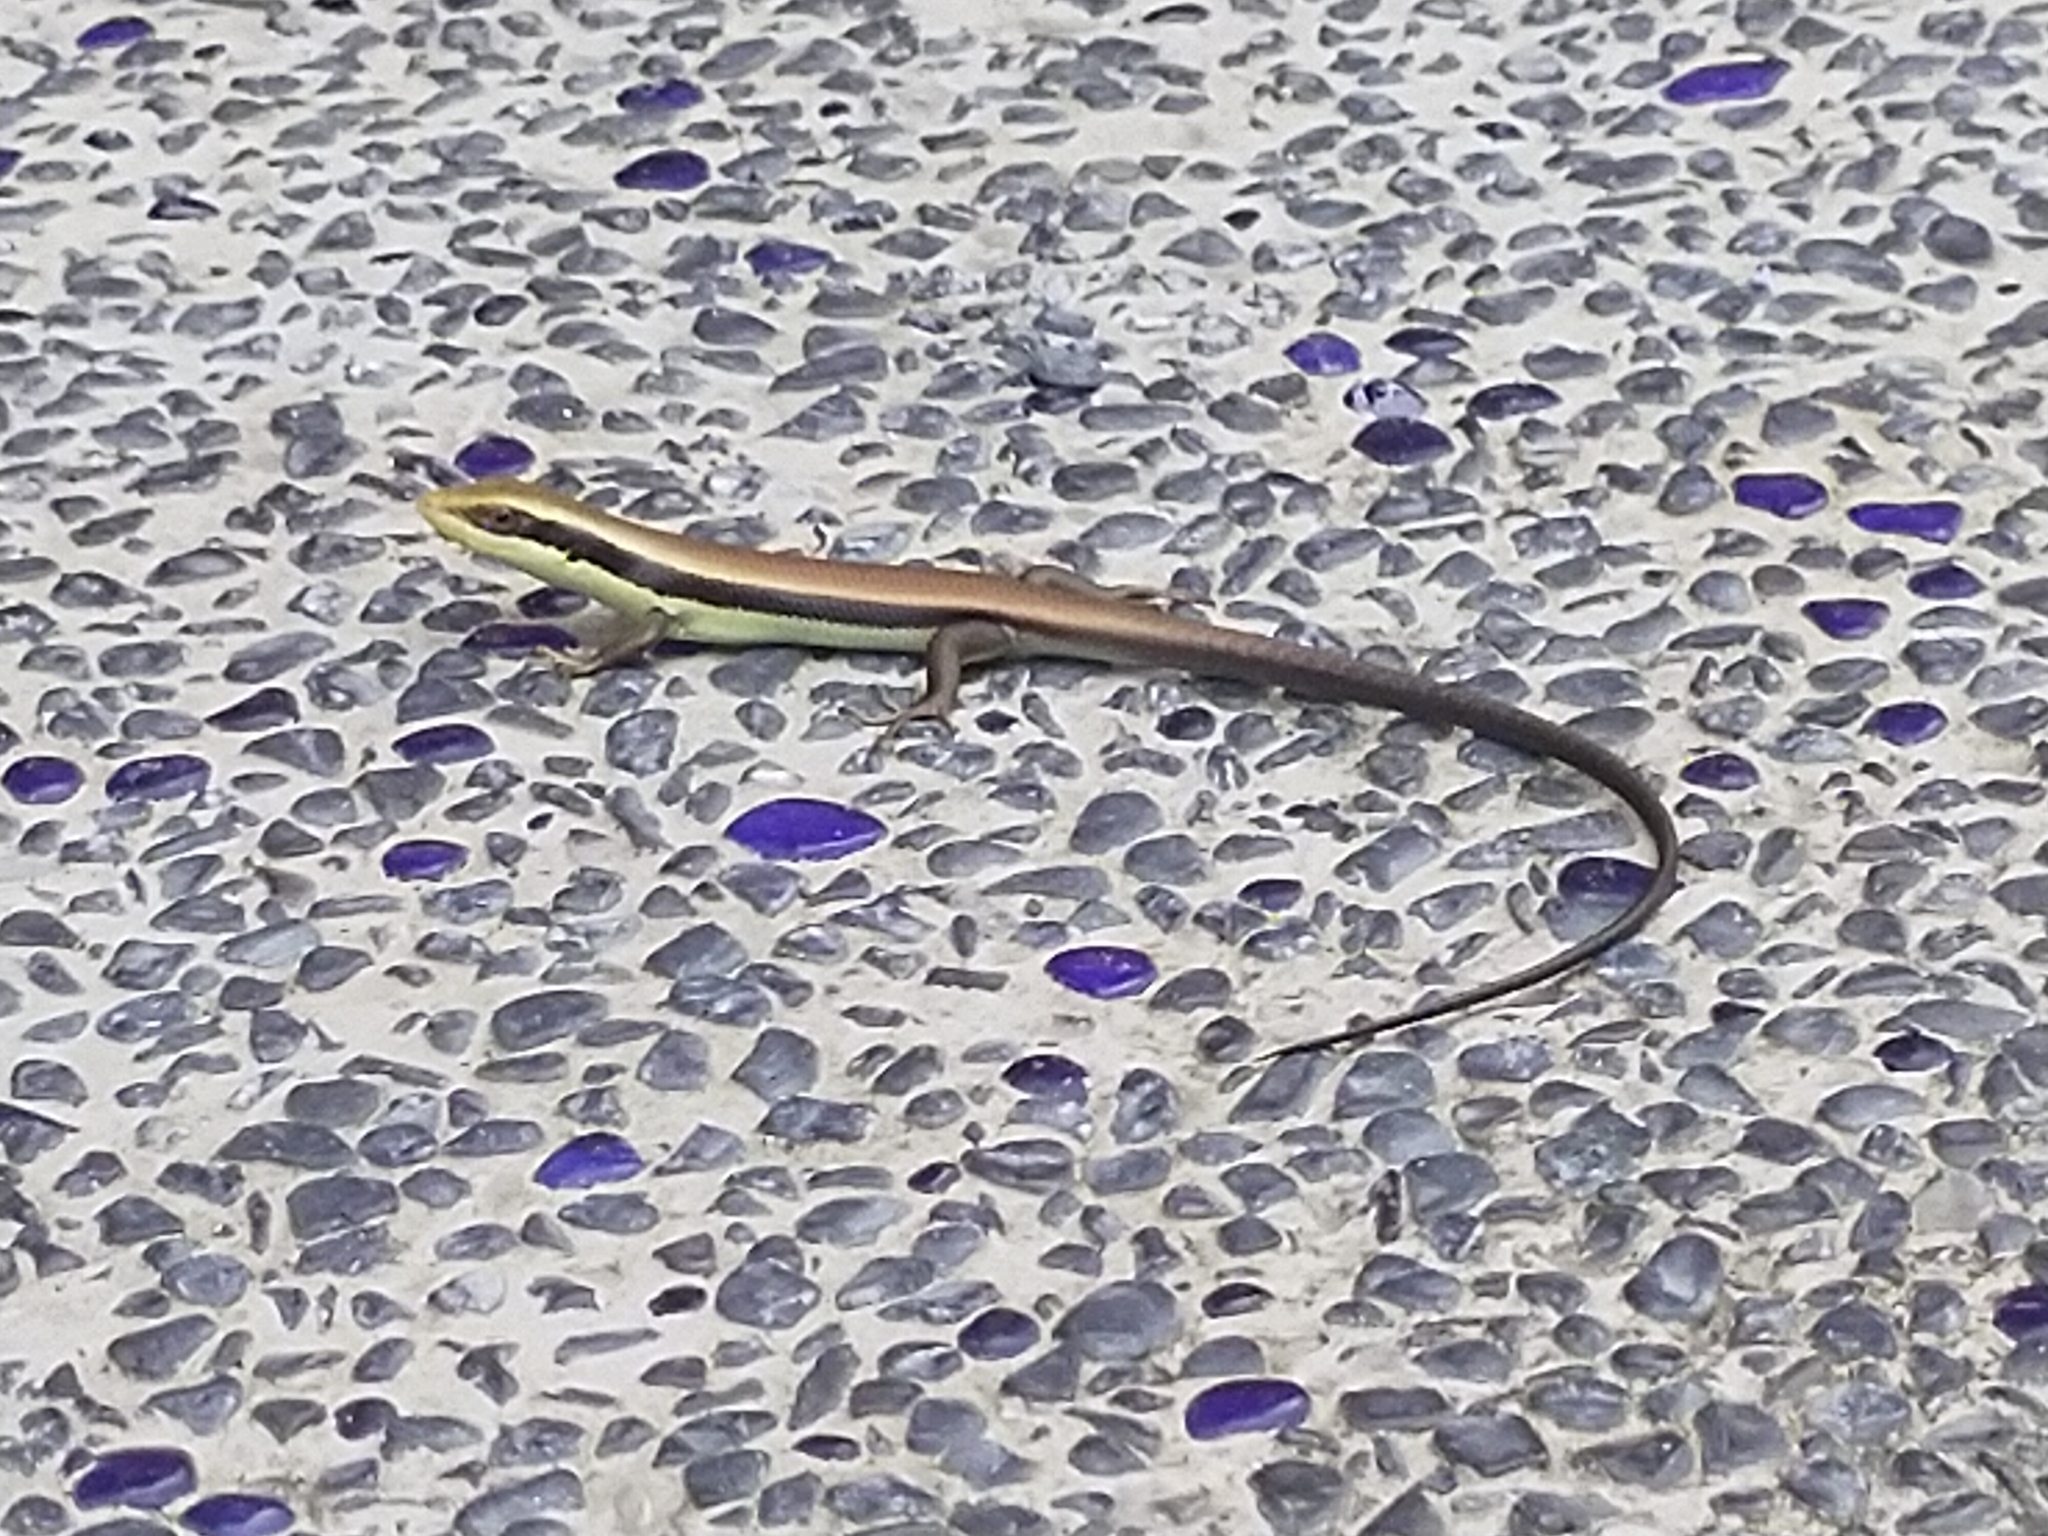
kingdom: Animalia
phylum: Chordata
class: Squamata
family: Scincidae
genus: Eutropis
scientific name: Eutropis longicaudata
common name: Long-tailed sun skink
